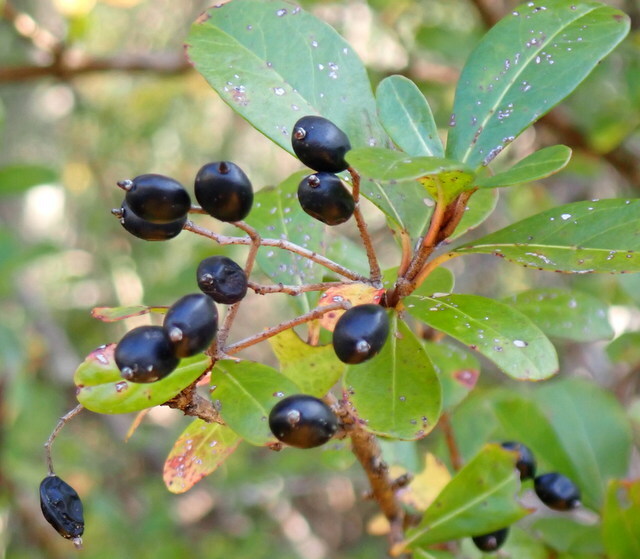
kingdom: Plantae
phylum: Tracheophyta
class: Magnoliopsida
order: Dipsacales
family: Viburnaceae
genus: Viburnum
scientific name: Viburnum obovatum
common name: Walter's viburnum
